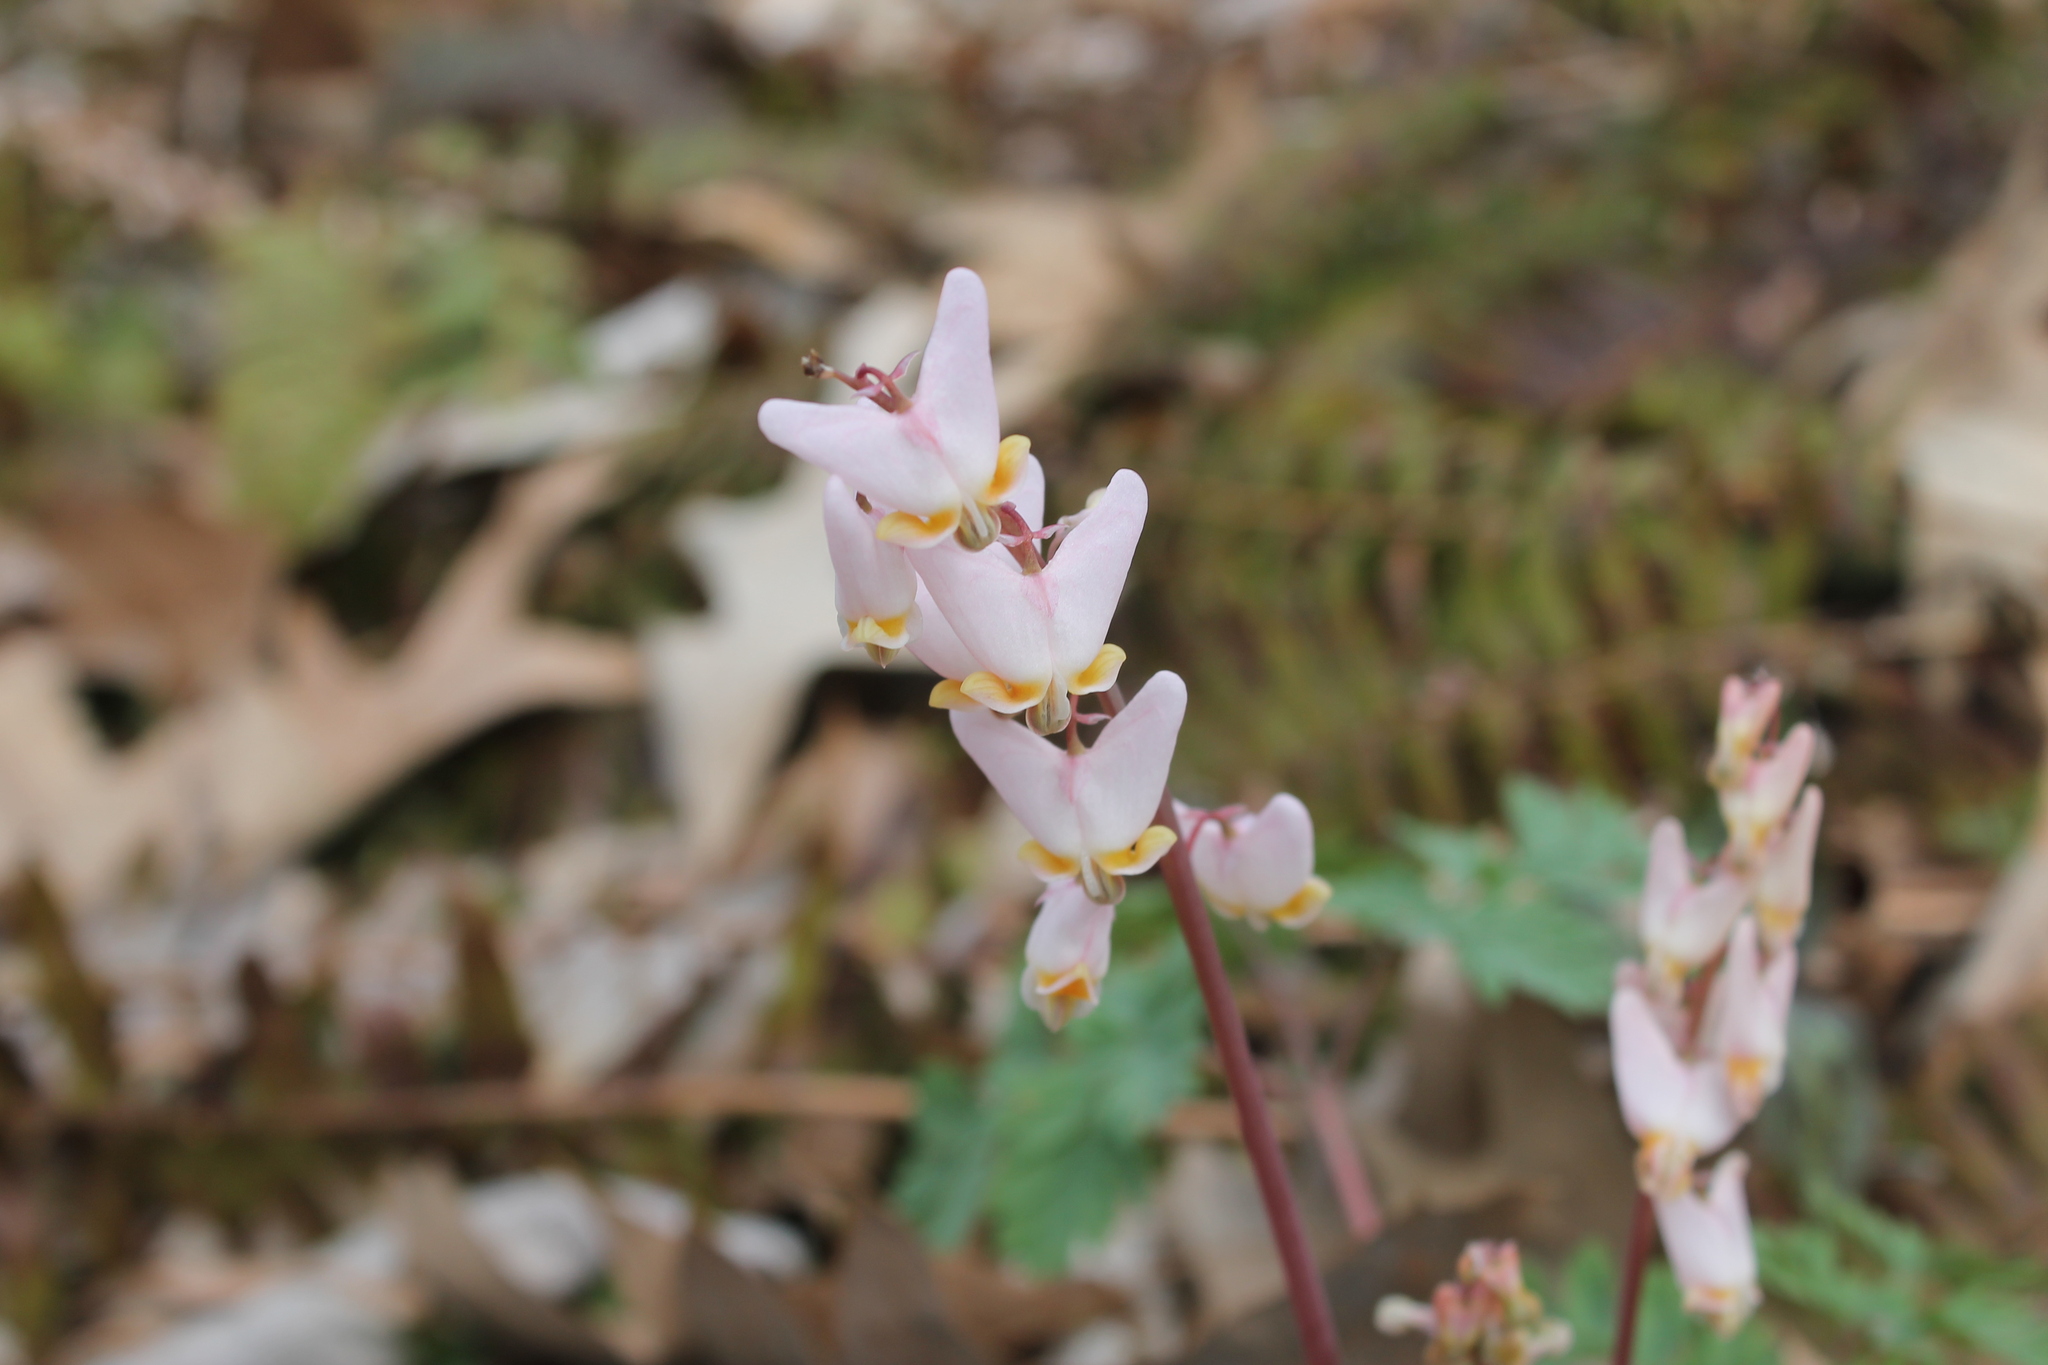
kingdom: Plantae
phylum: Tracheophyta
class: Magnoliopsida
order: Ranunculales
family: Papaveraceae
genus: Dicentra
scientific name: Dicentra cucullaria
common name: Dutchman's breeches
